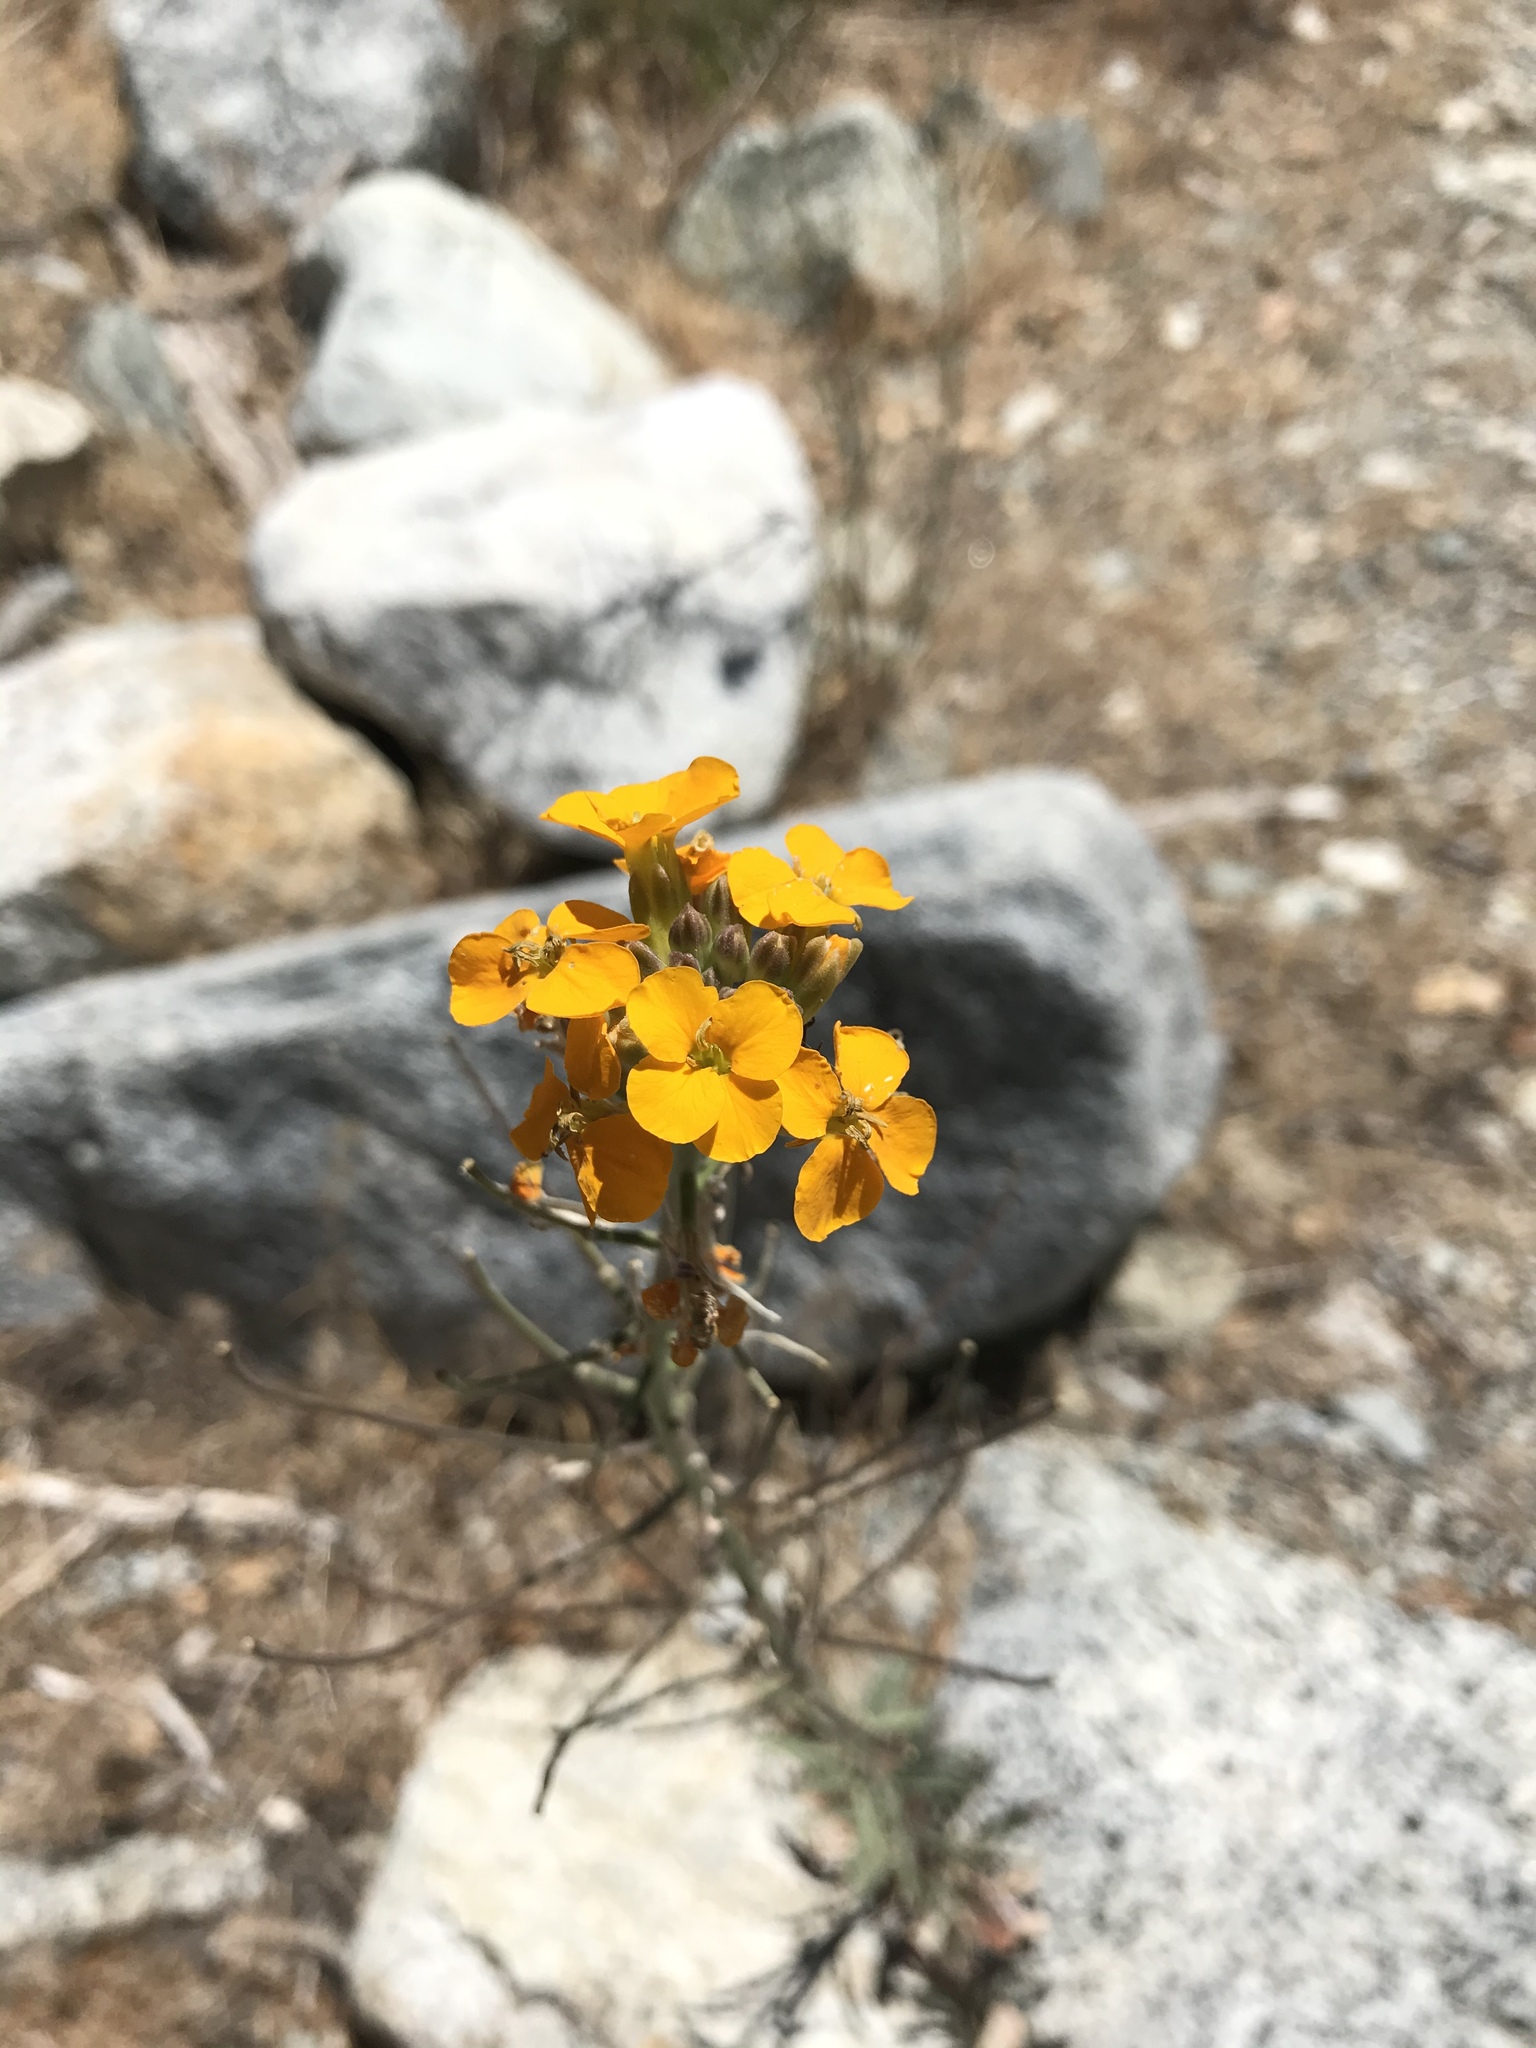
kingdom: Plantae
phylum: Tracheophyta
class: Magnoliopsida
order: Brassicales
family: Brassicaceae
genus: Erysimum
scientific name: Erysimum capitatum
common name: Western wallflower
